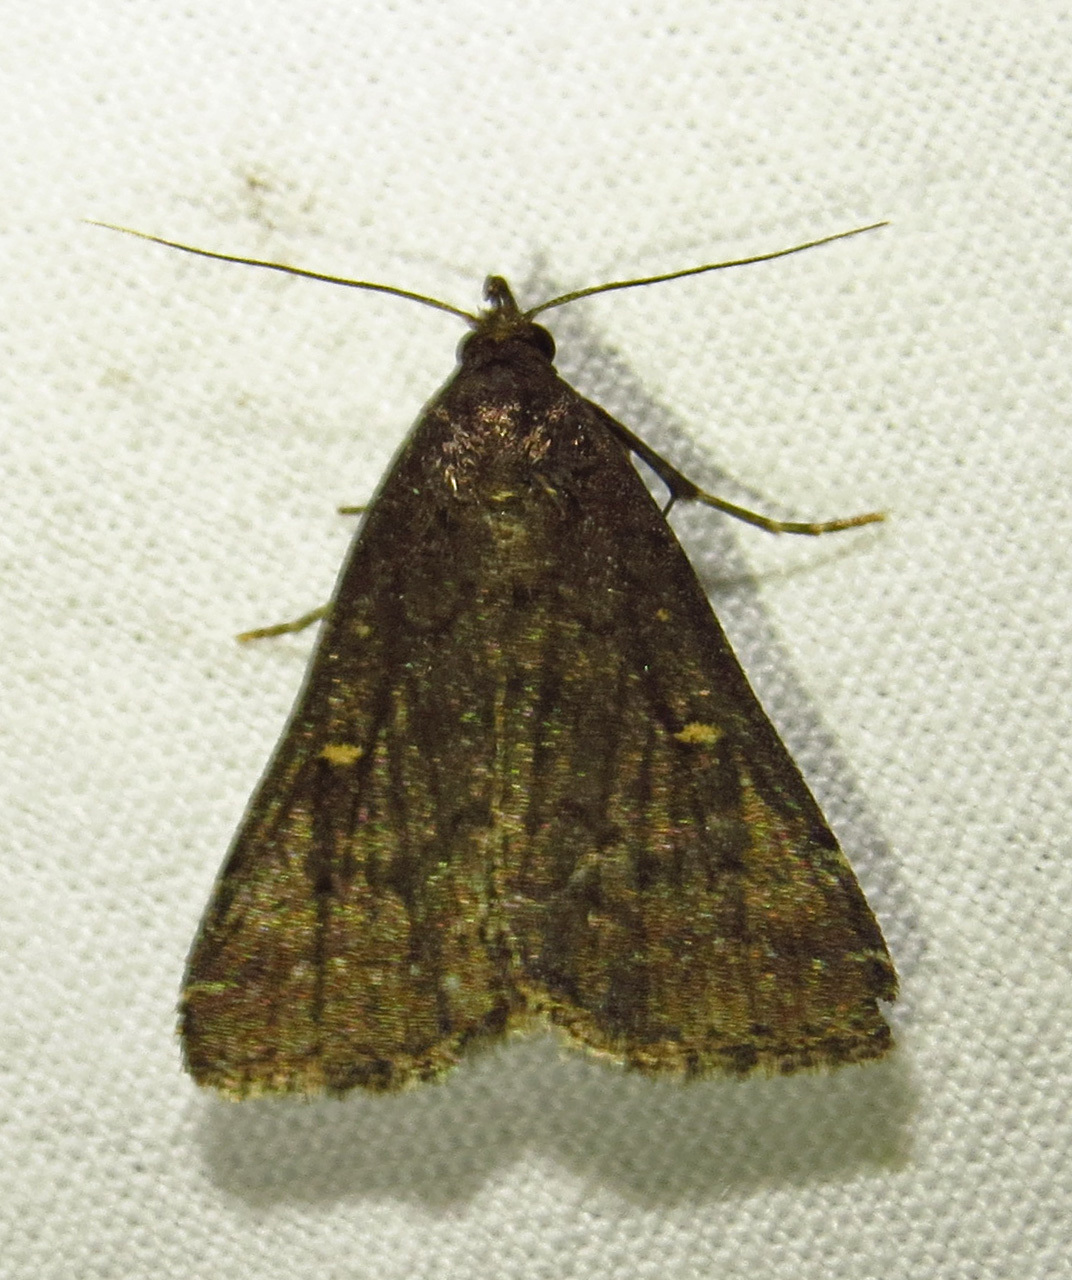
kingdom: Animalia
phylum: Arthropoda
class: Insecta
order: Lepidoptera
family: Erebidae
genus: Tetanolita
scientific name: Tetanolita mynesalis
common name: Smoky tetanolita moth
